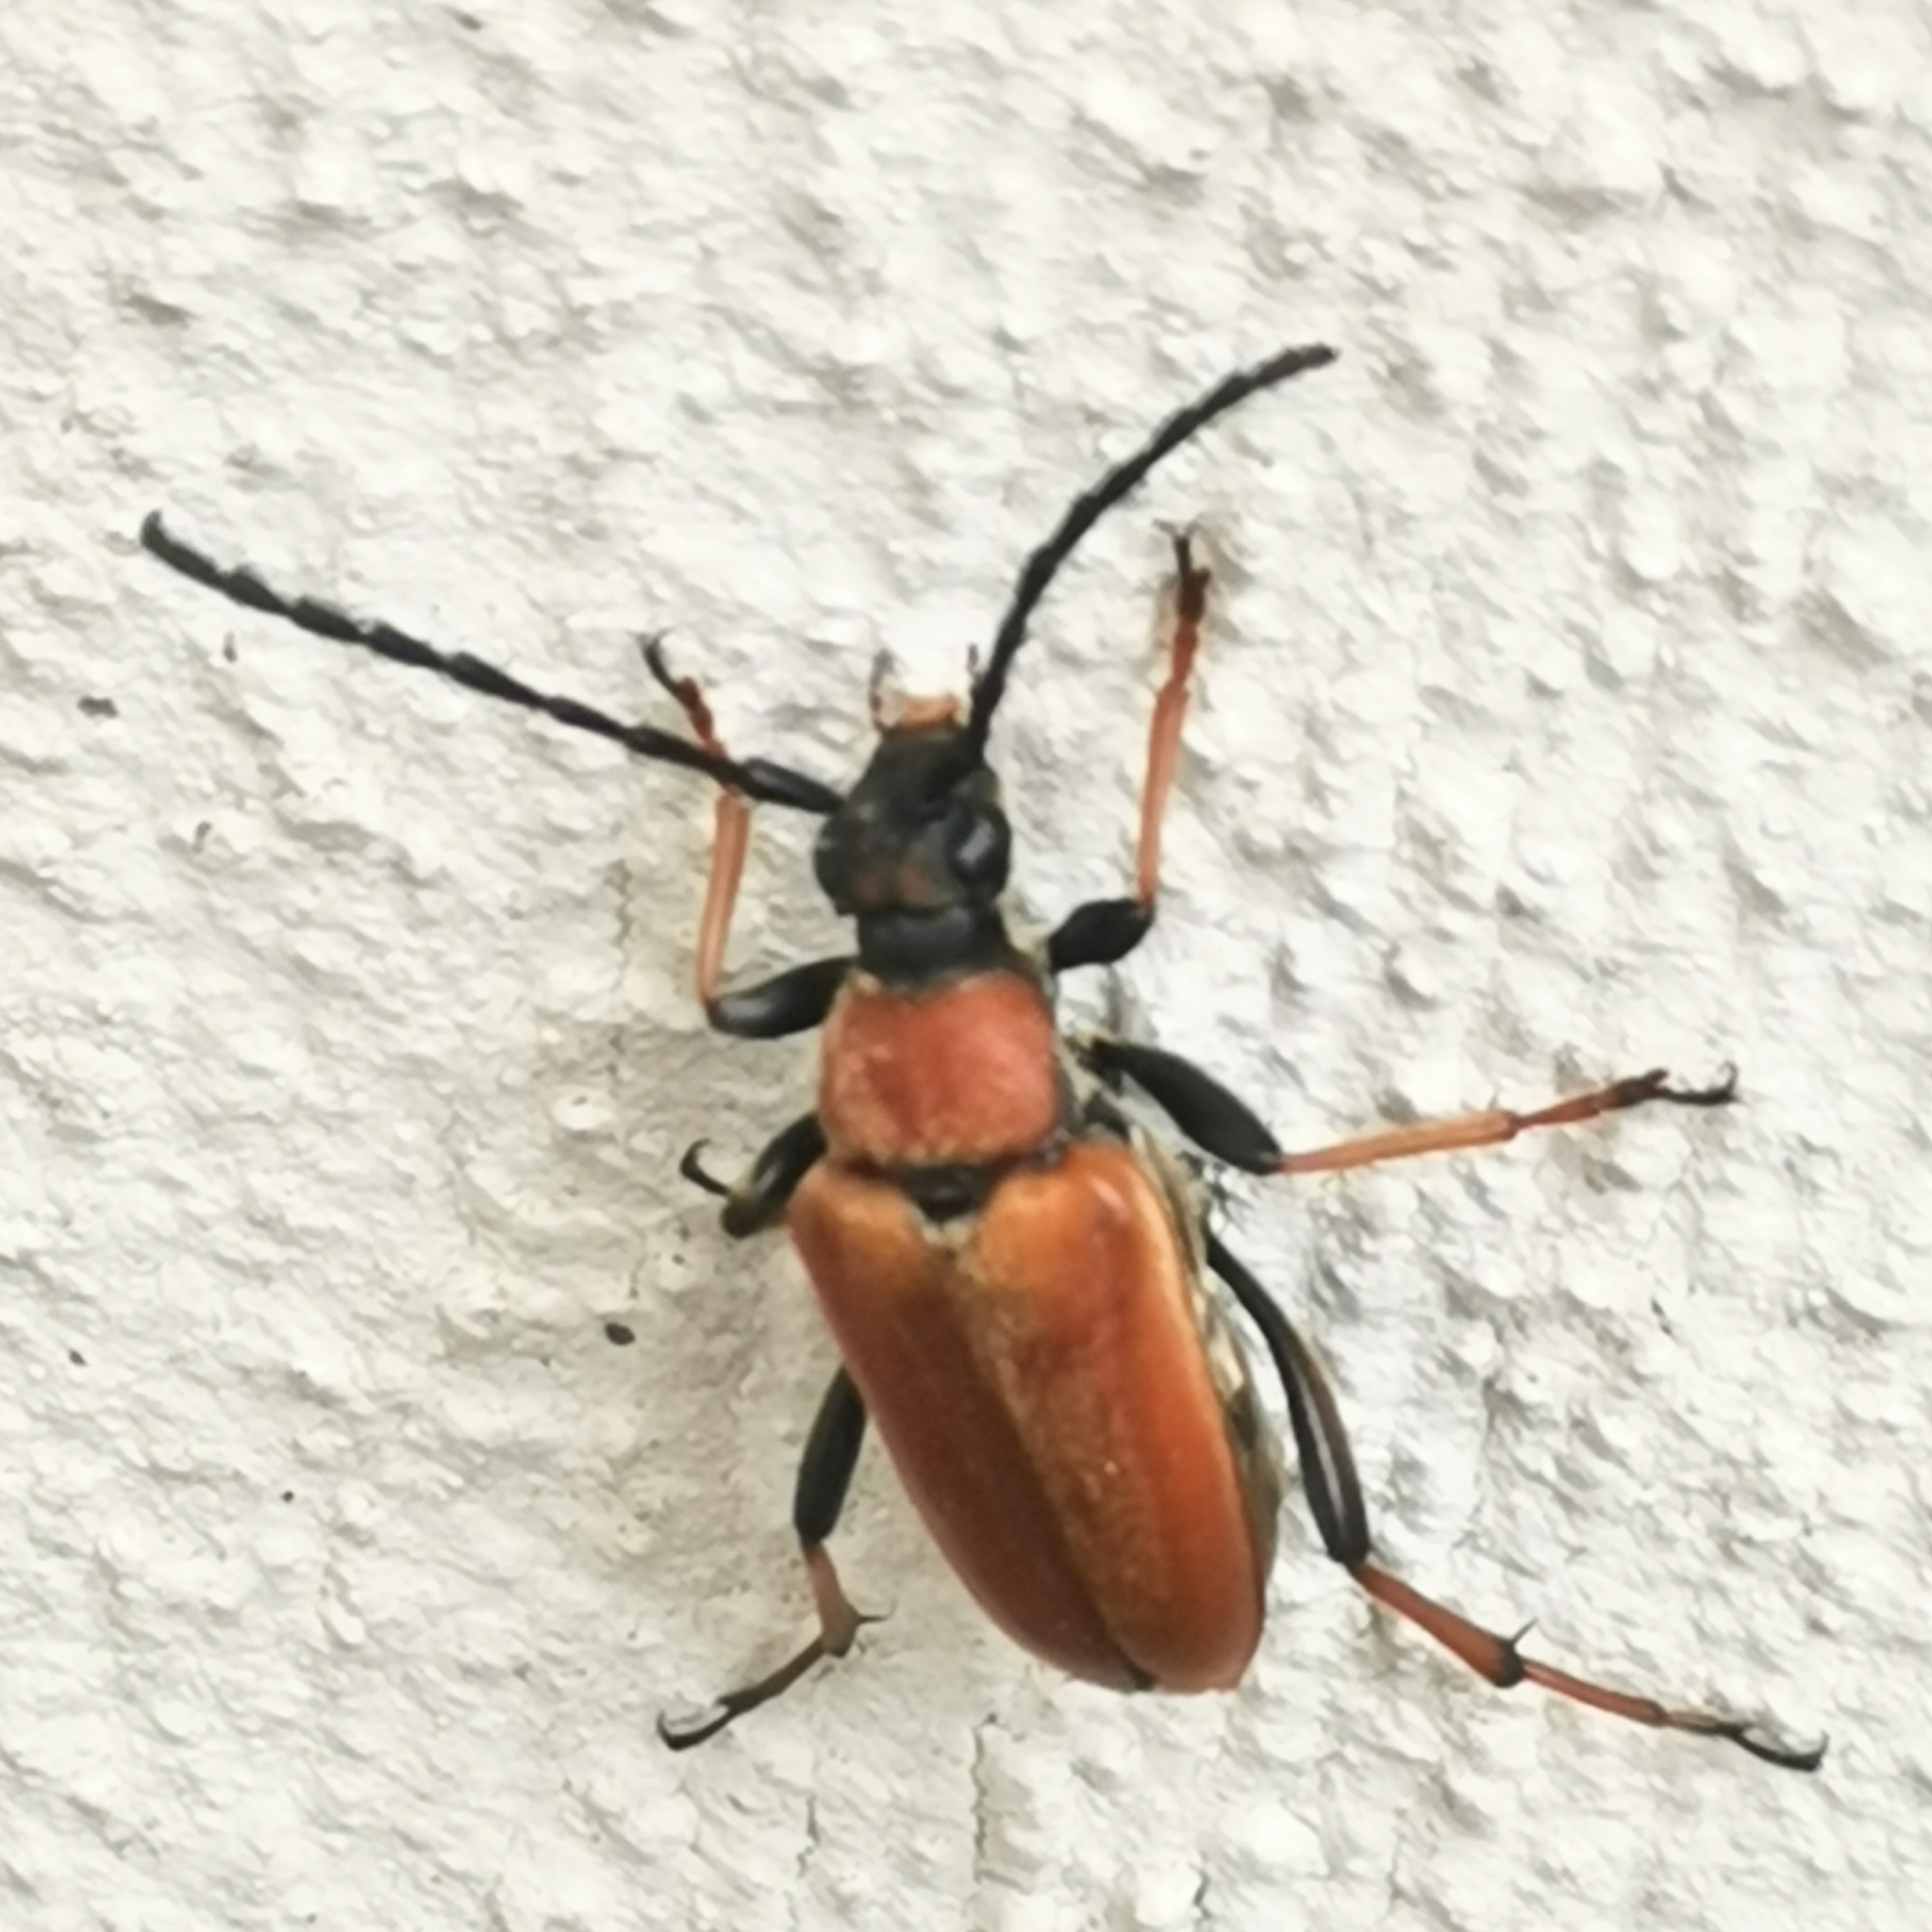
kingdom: Animalia
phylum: Arthropoda
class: Insecta
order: Coleoptera
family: Cerambycidae
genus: Stictoleptura
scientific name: Stictoleptura rubra
